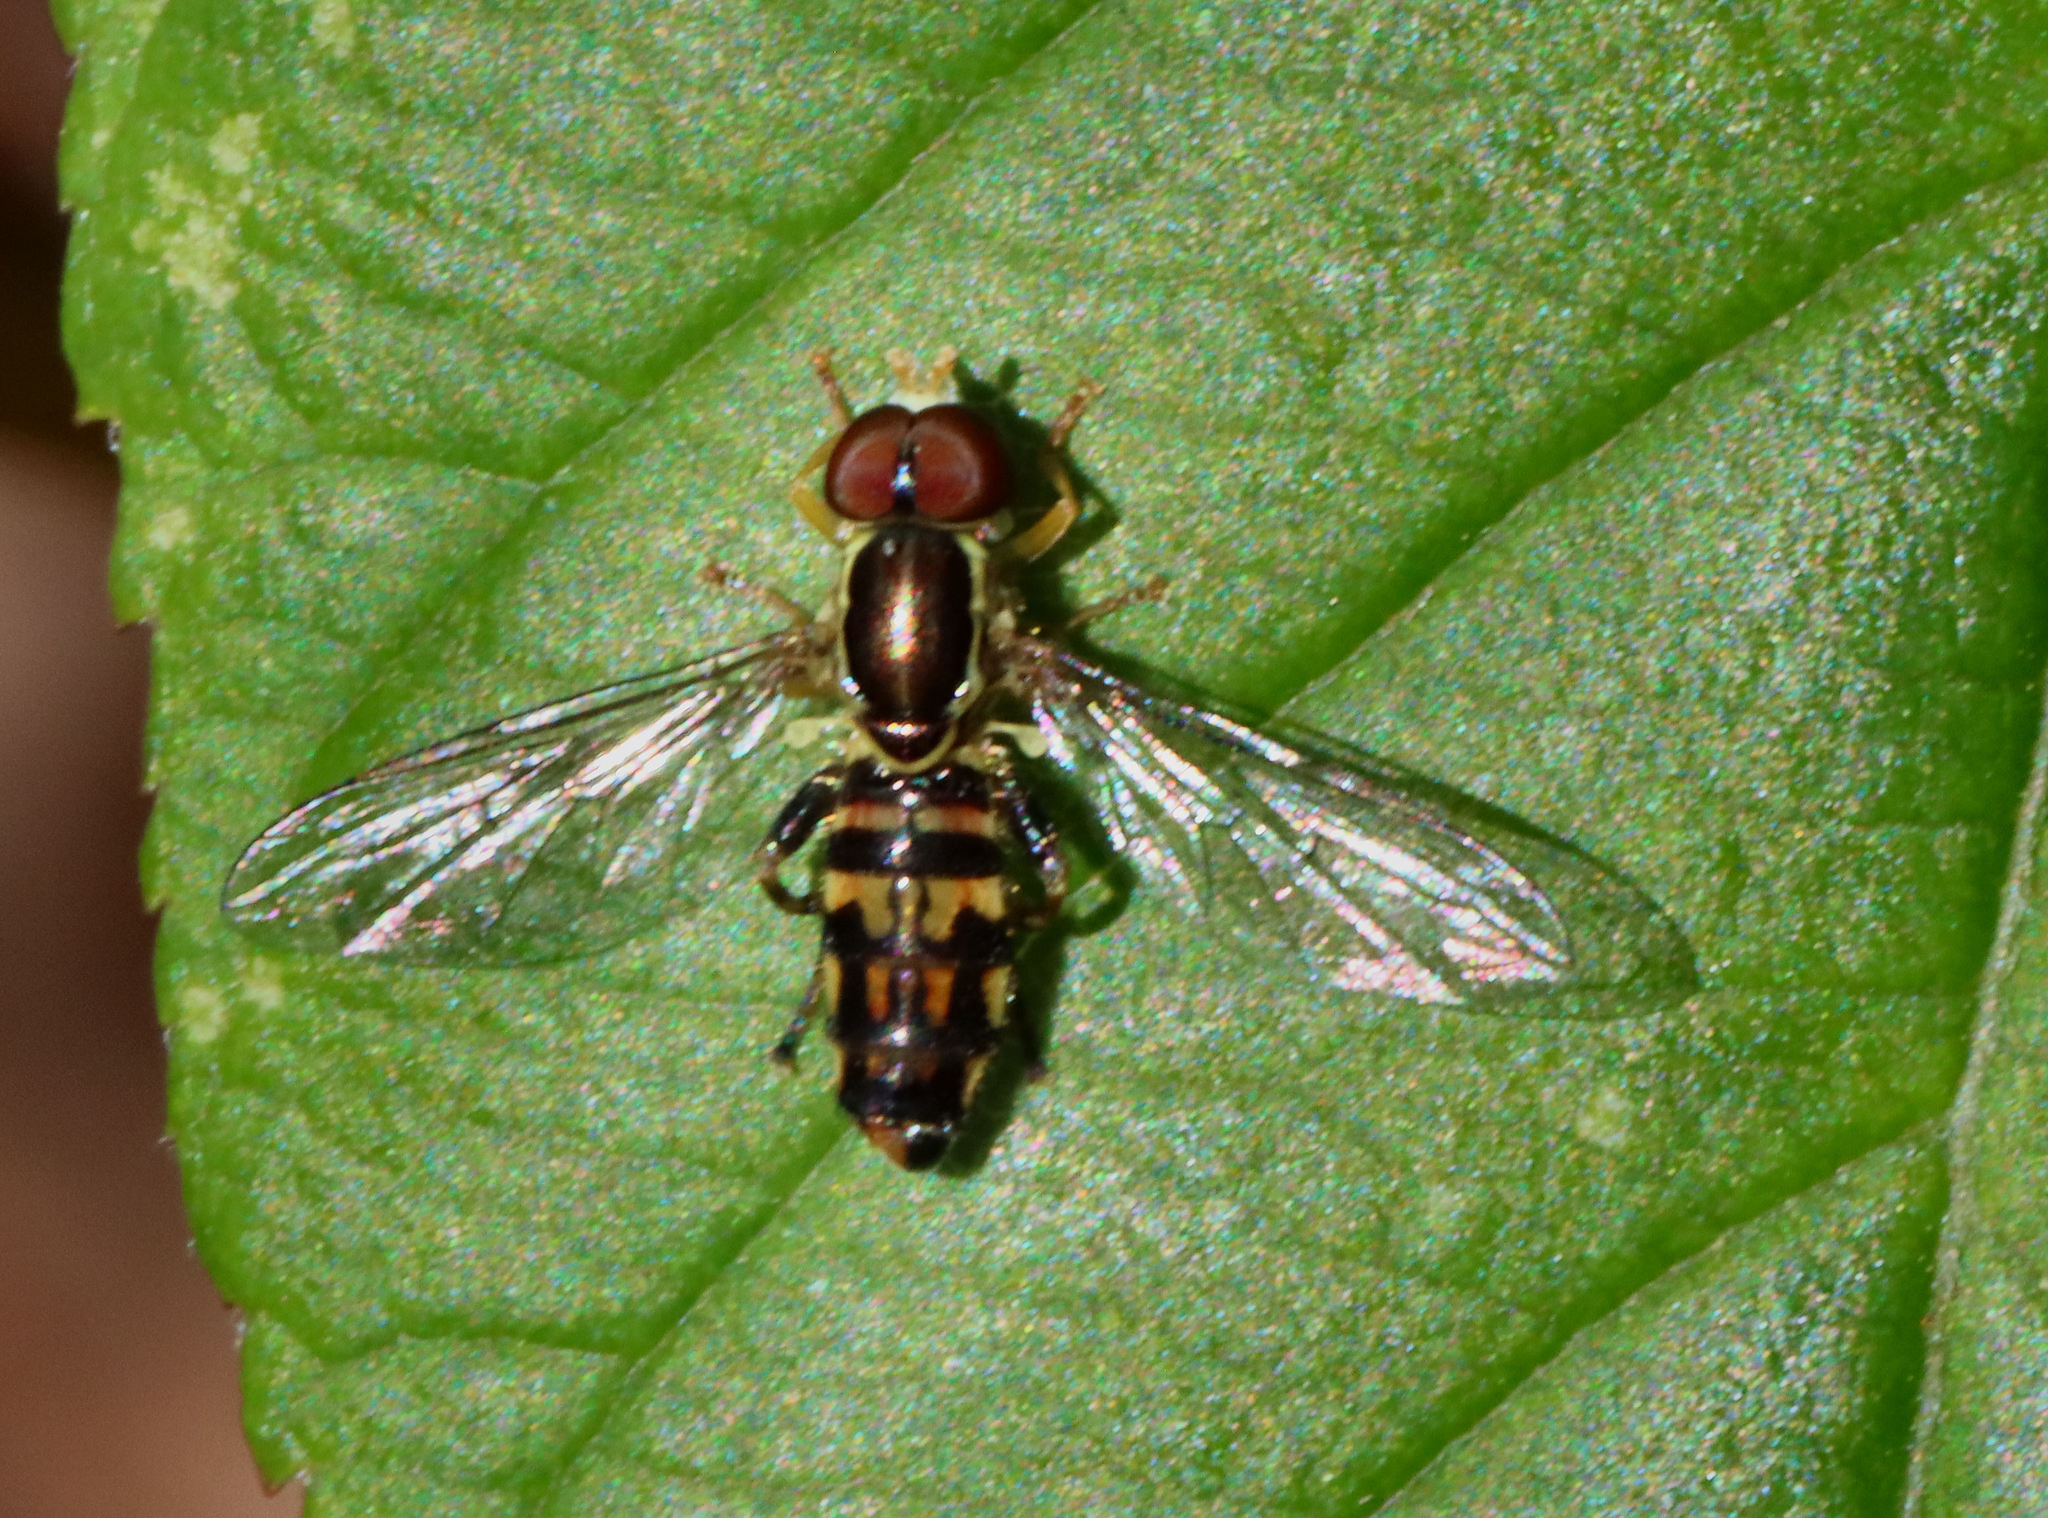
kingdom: Animalia
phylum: Arthropoda
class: Insecta
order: Diptera
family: Syrphidae
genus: Toxomerus
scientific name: Toxomerus geminatus
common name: Eastern calligrapher
